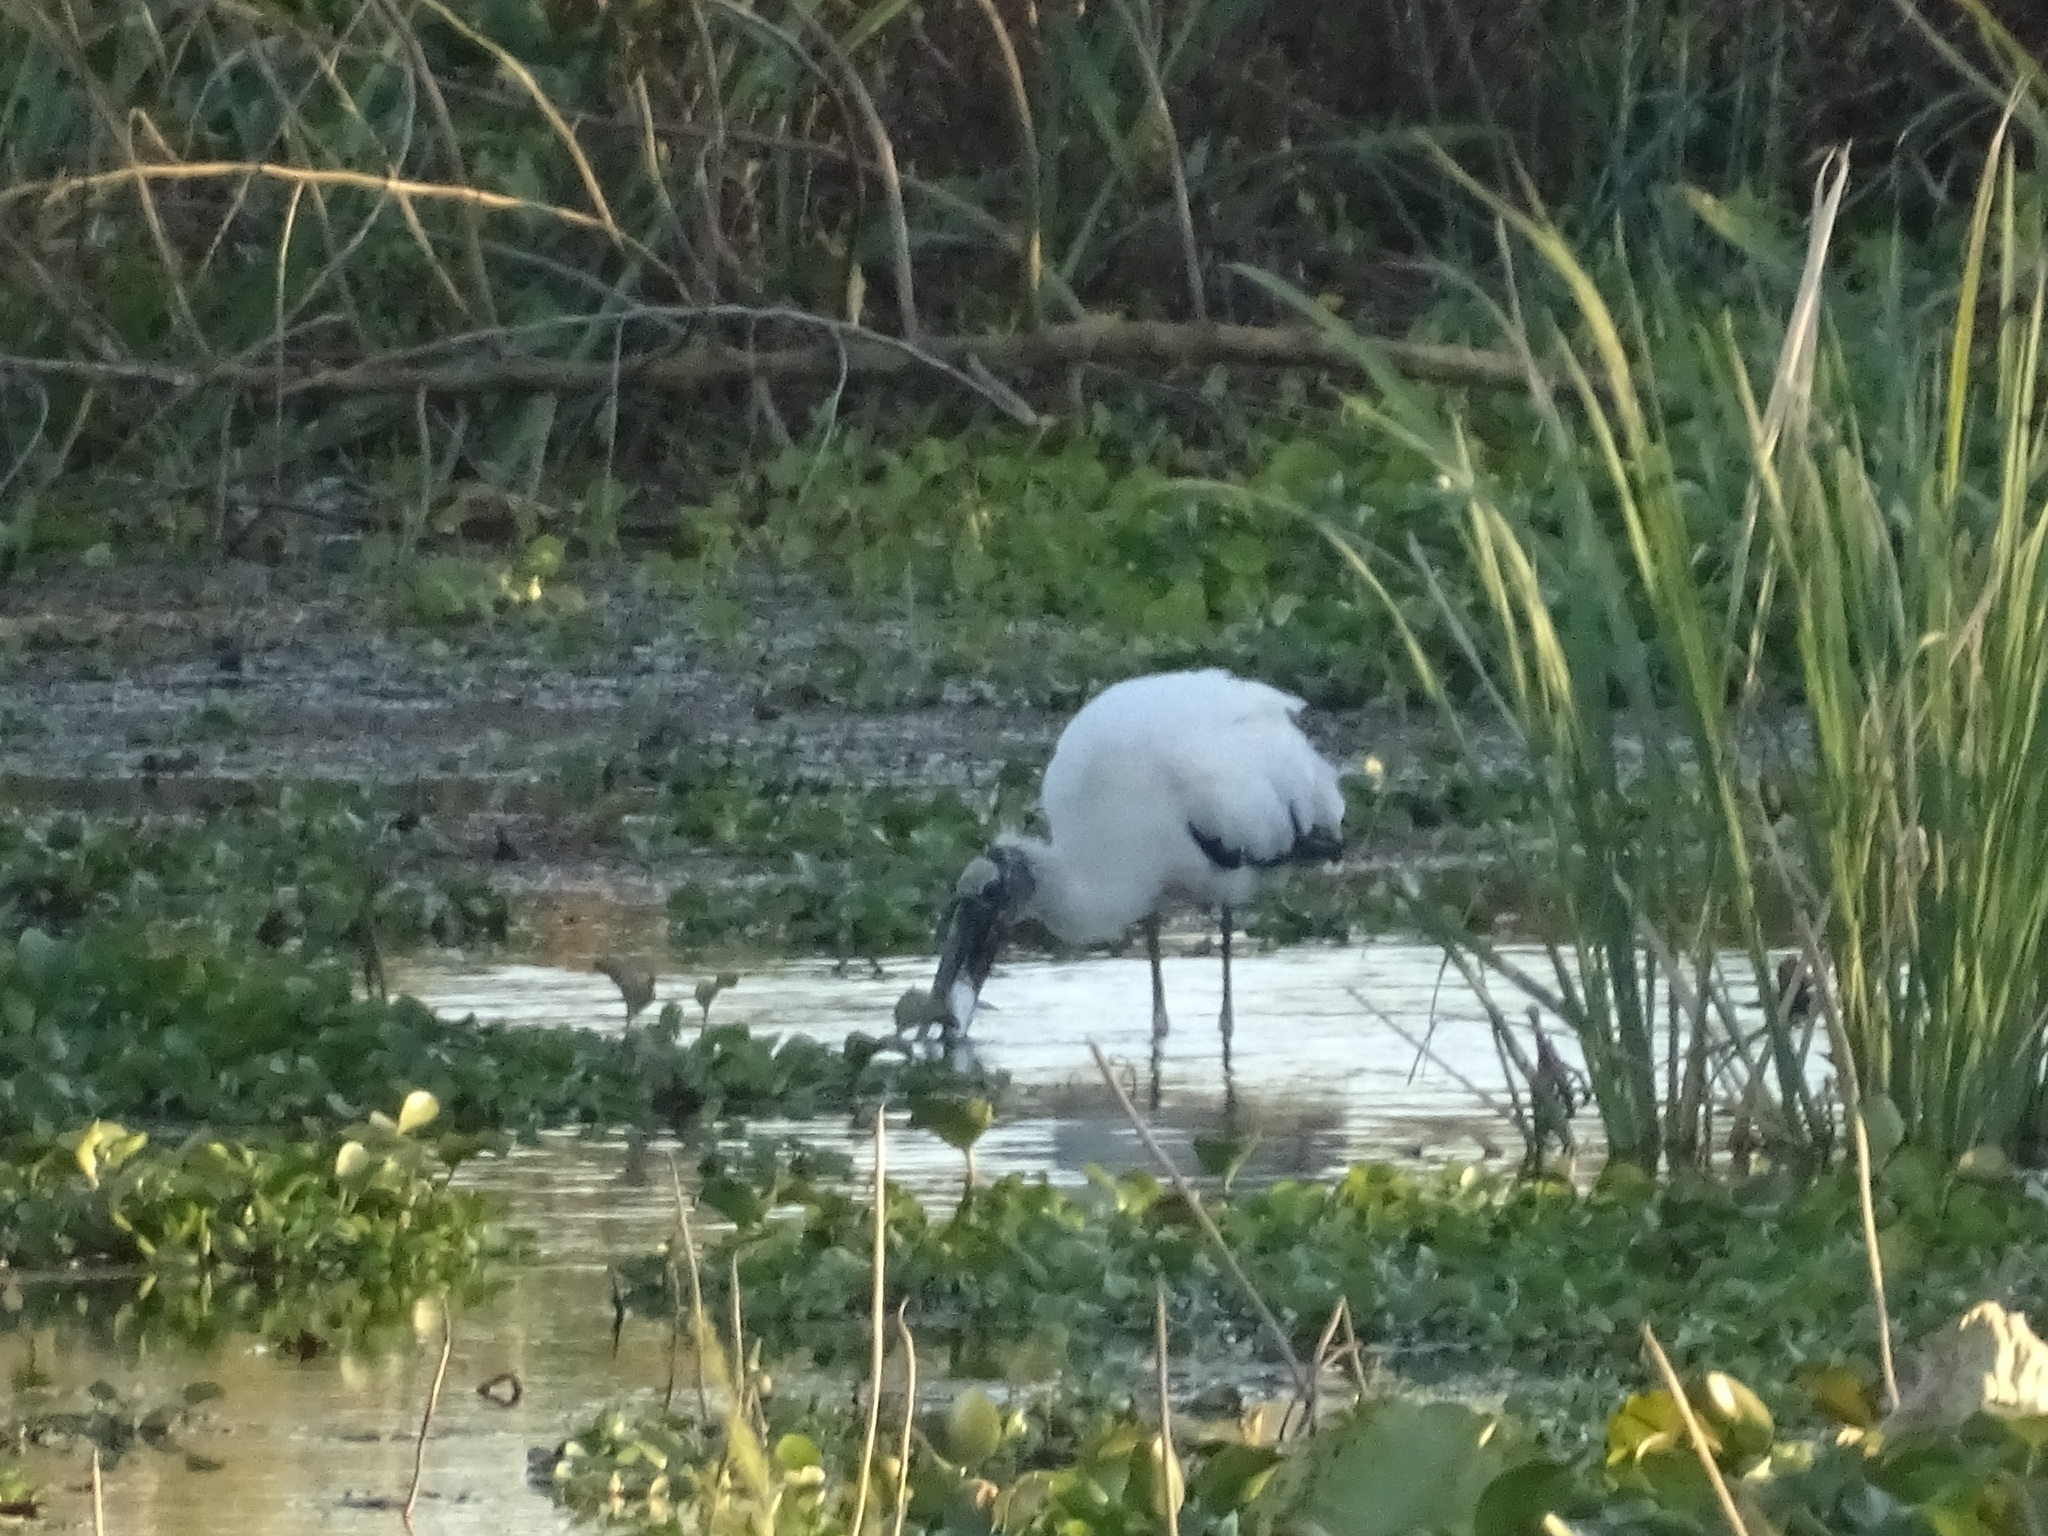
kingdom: Animalia
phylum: Chordata
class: Aves
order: Ciconiiformes
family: Ciconiidae
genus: Mycteria
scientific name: Mycteria americana
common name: Wood stork
